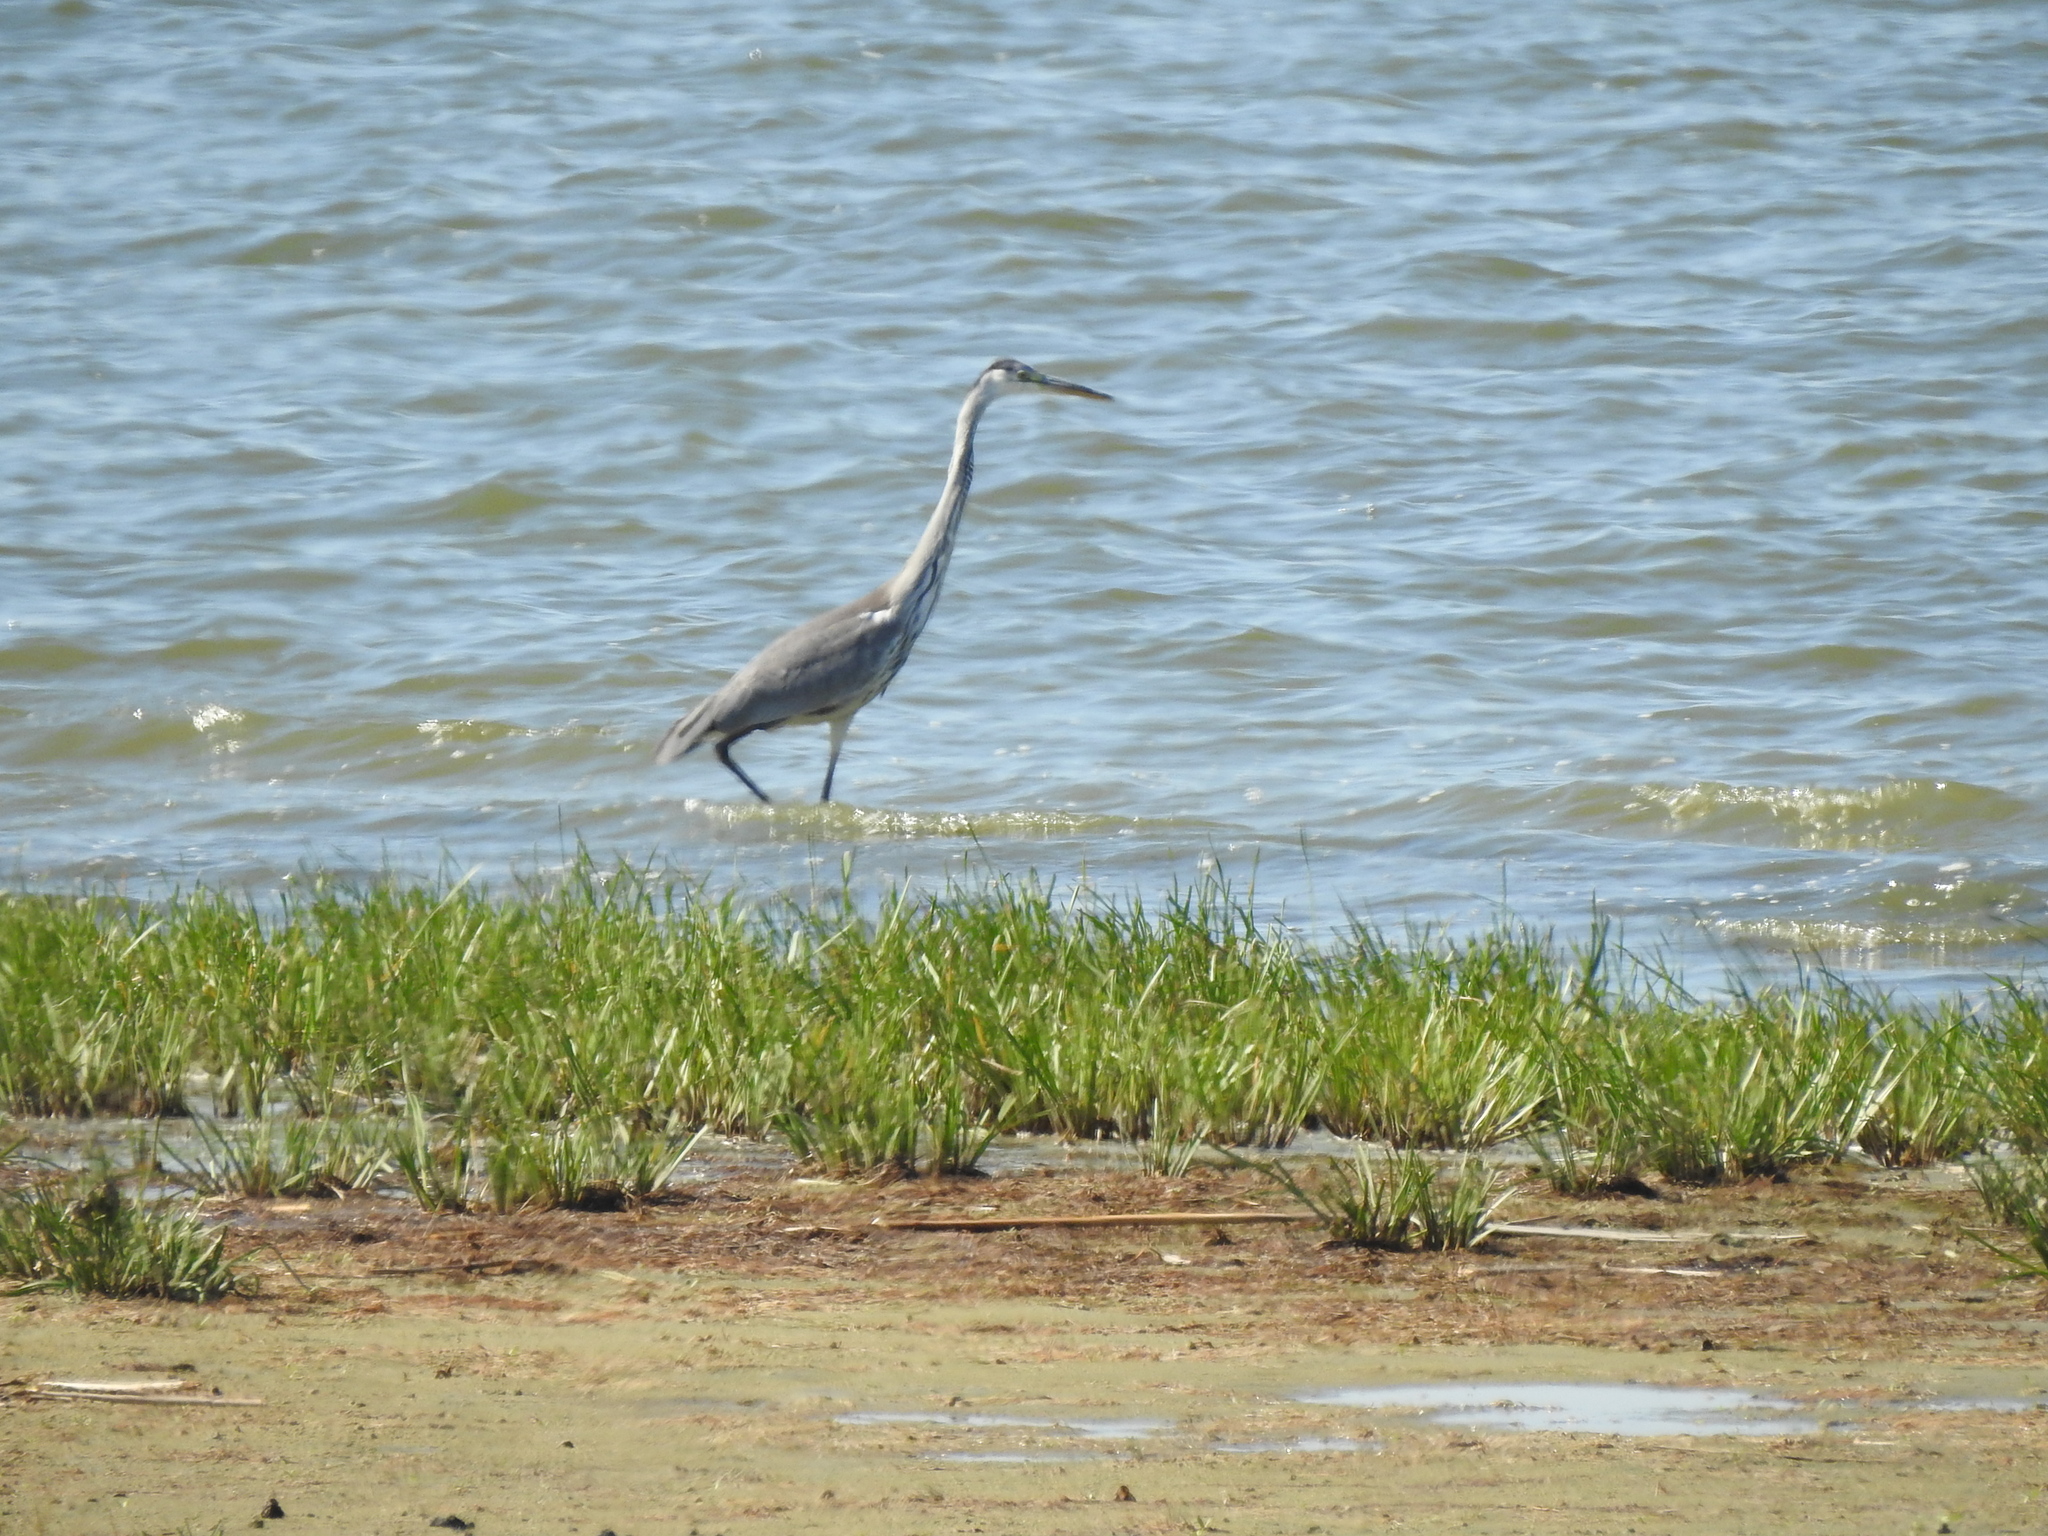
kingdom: Animalia
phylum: Chordata
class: Aves
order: Pelecaniformes
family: Ardeidae
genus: Ardea
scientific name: Ardea cinerea
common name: Grey heron
